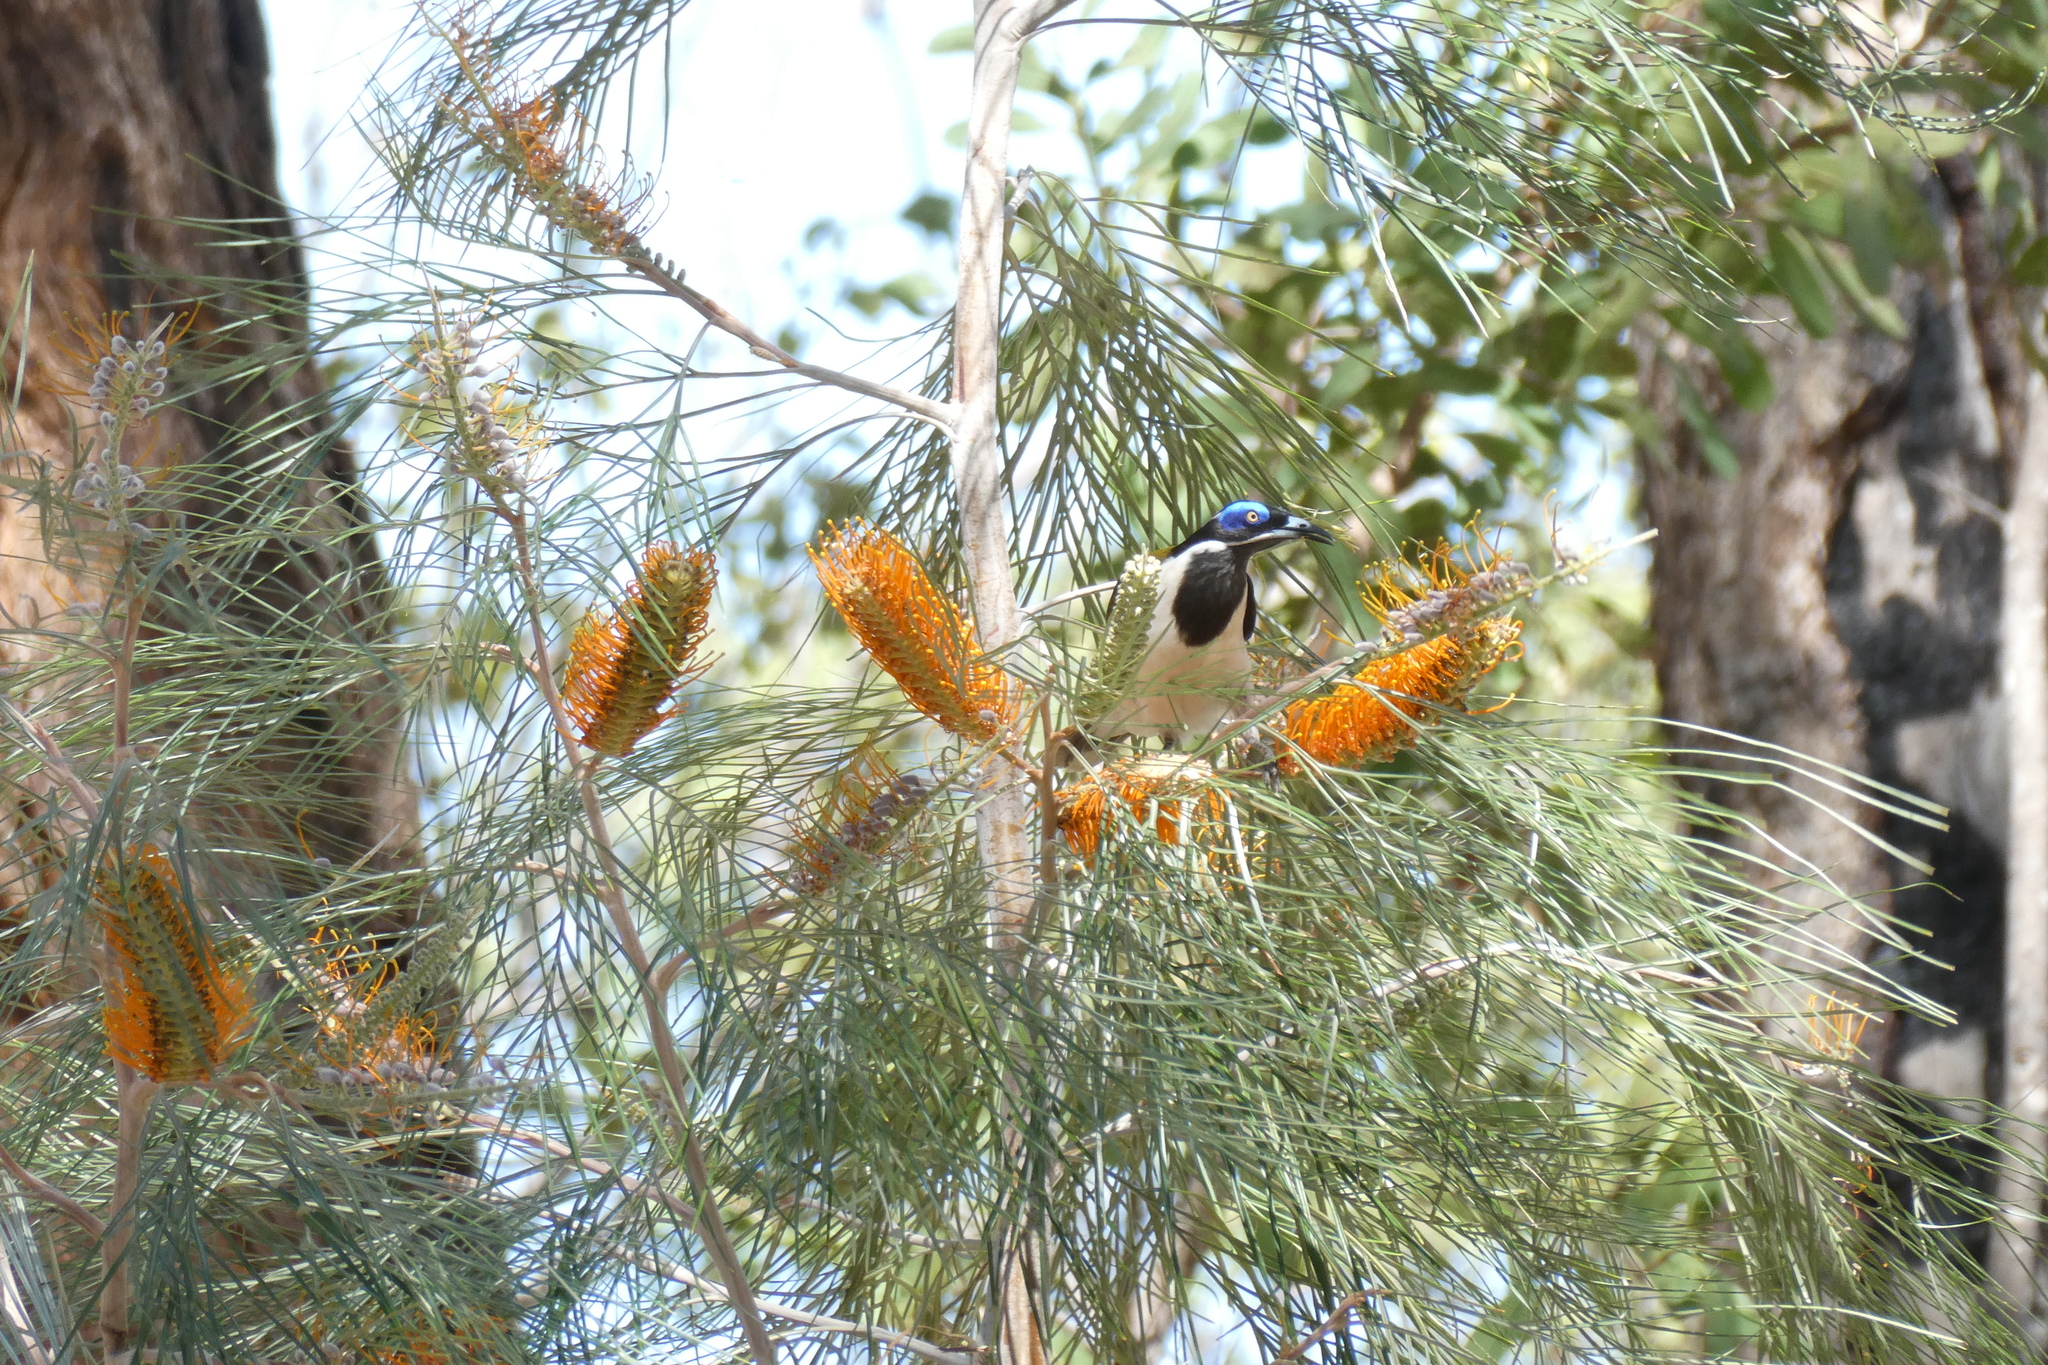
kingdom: Animalia
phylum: Chordata
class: Aves
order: Passeriformes
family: Meliphagidae
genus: Entomyzon
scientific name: Entomyzon cyanotis
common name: Blue-faced honeyeater
